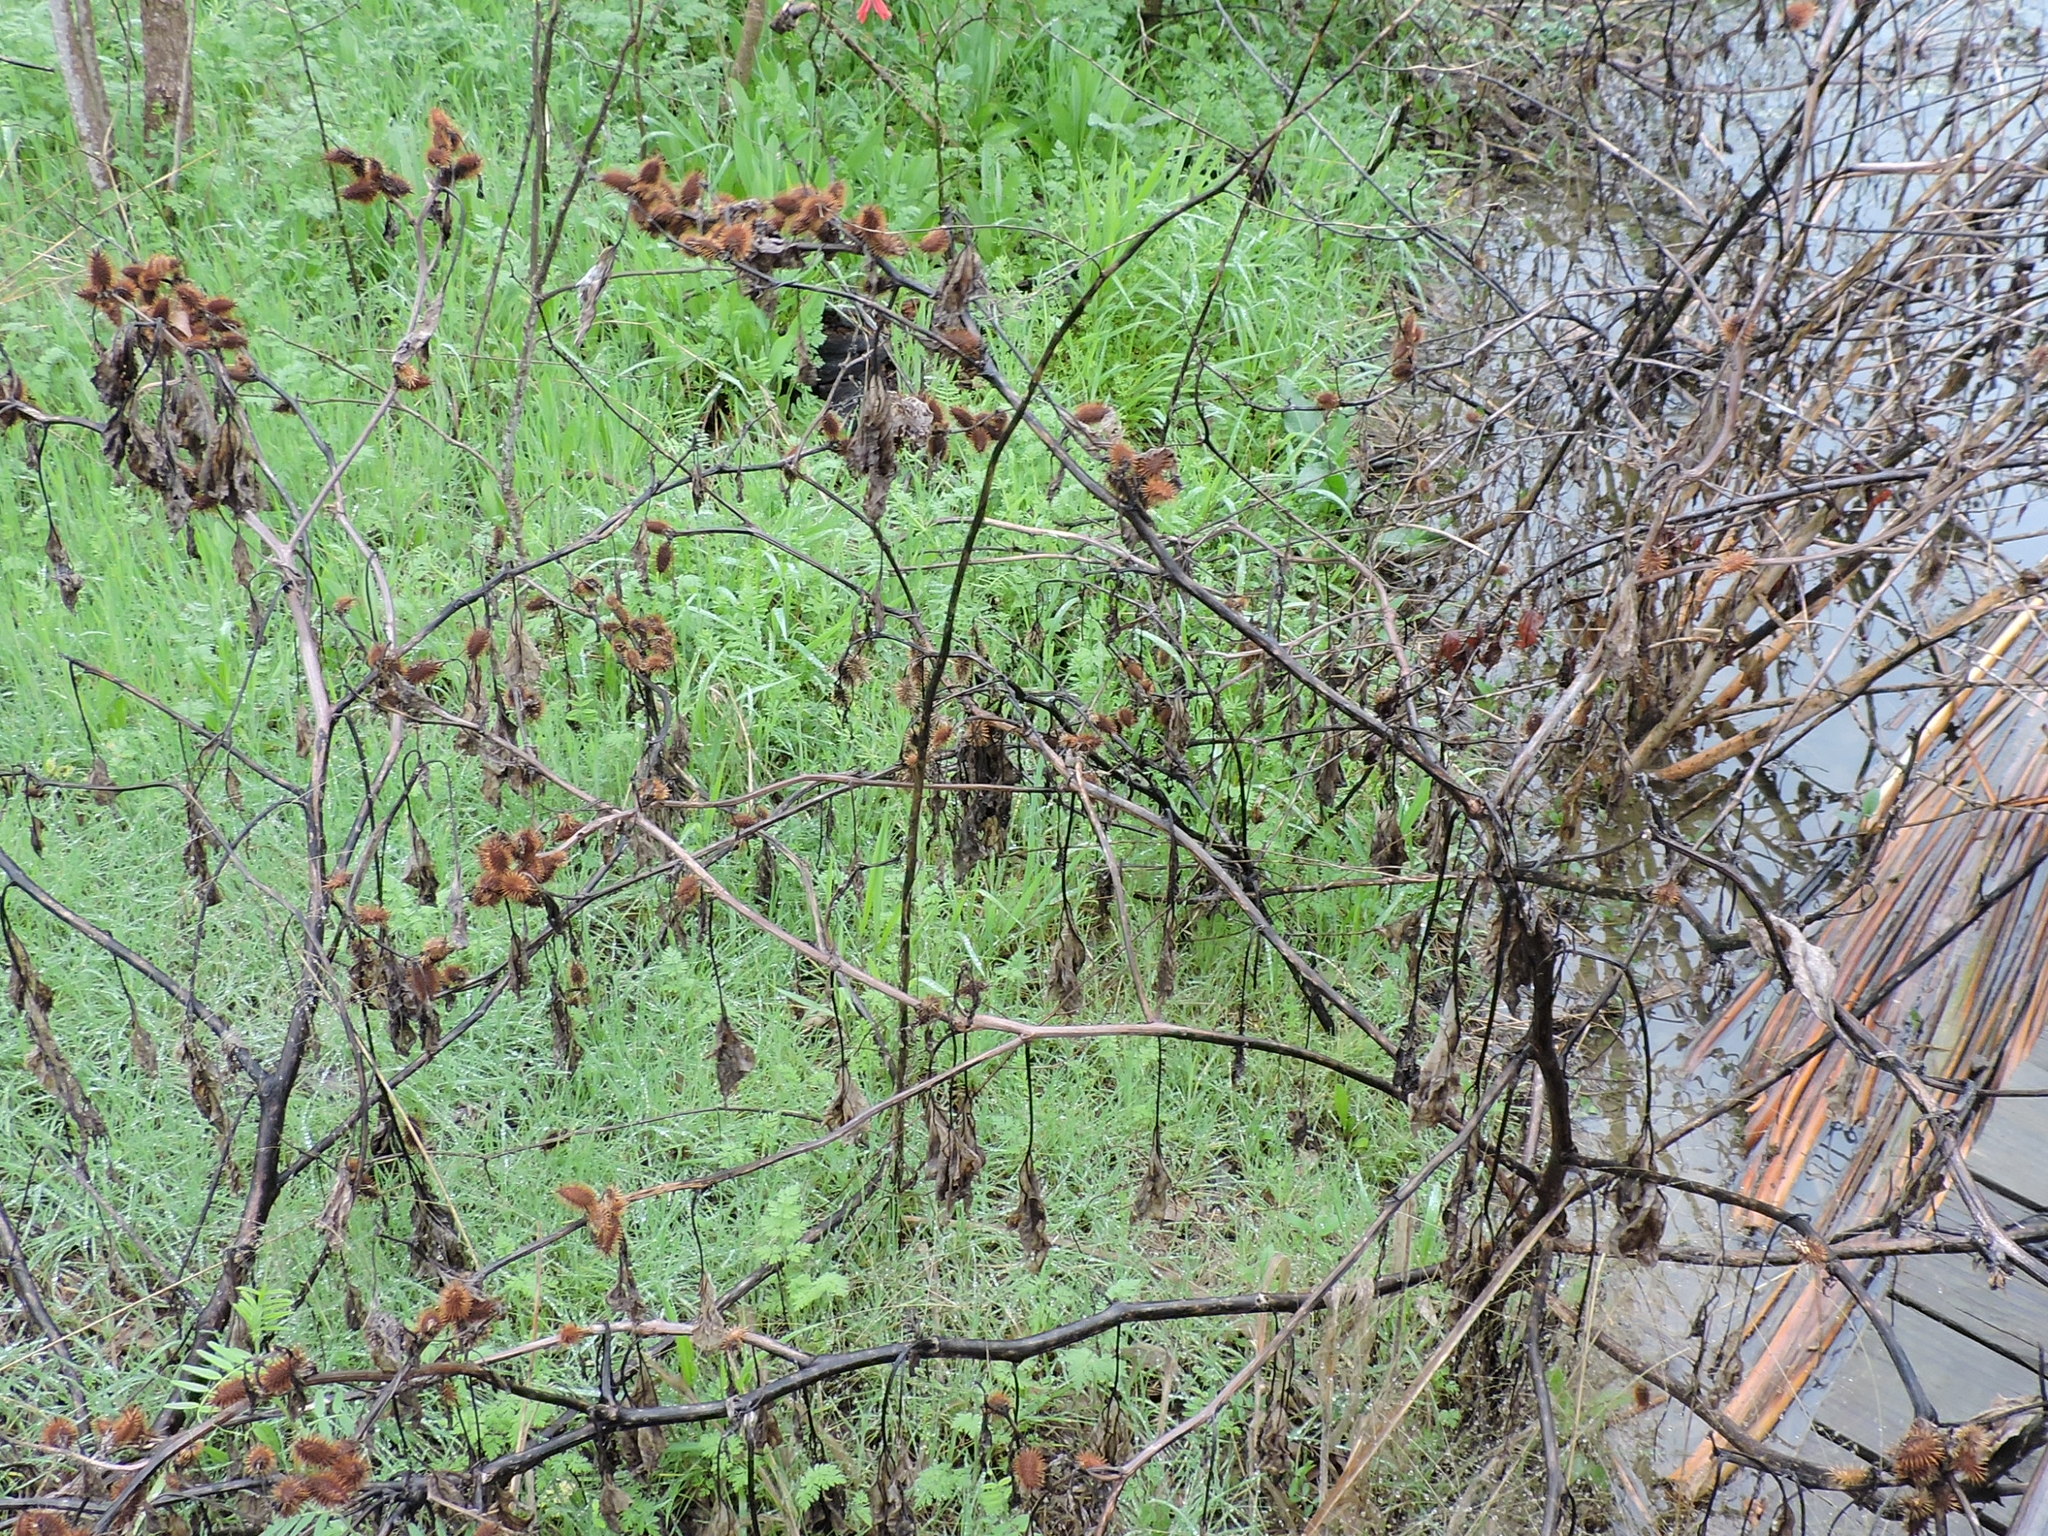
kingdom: Plantae
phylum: Tracheophyta
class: Magnoliopsida
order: Asterales
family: Asteraceae
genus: Xanthium
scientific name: Xanthium strumarium
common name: Rough cocklebur
